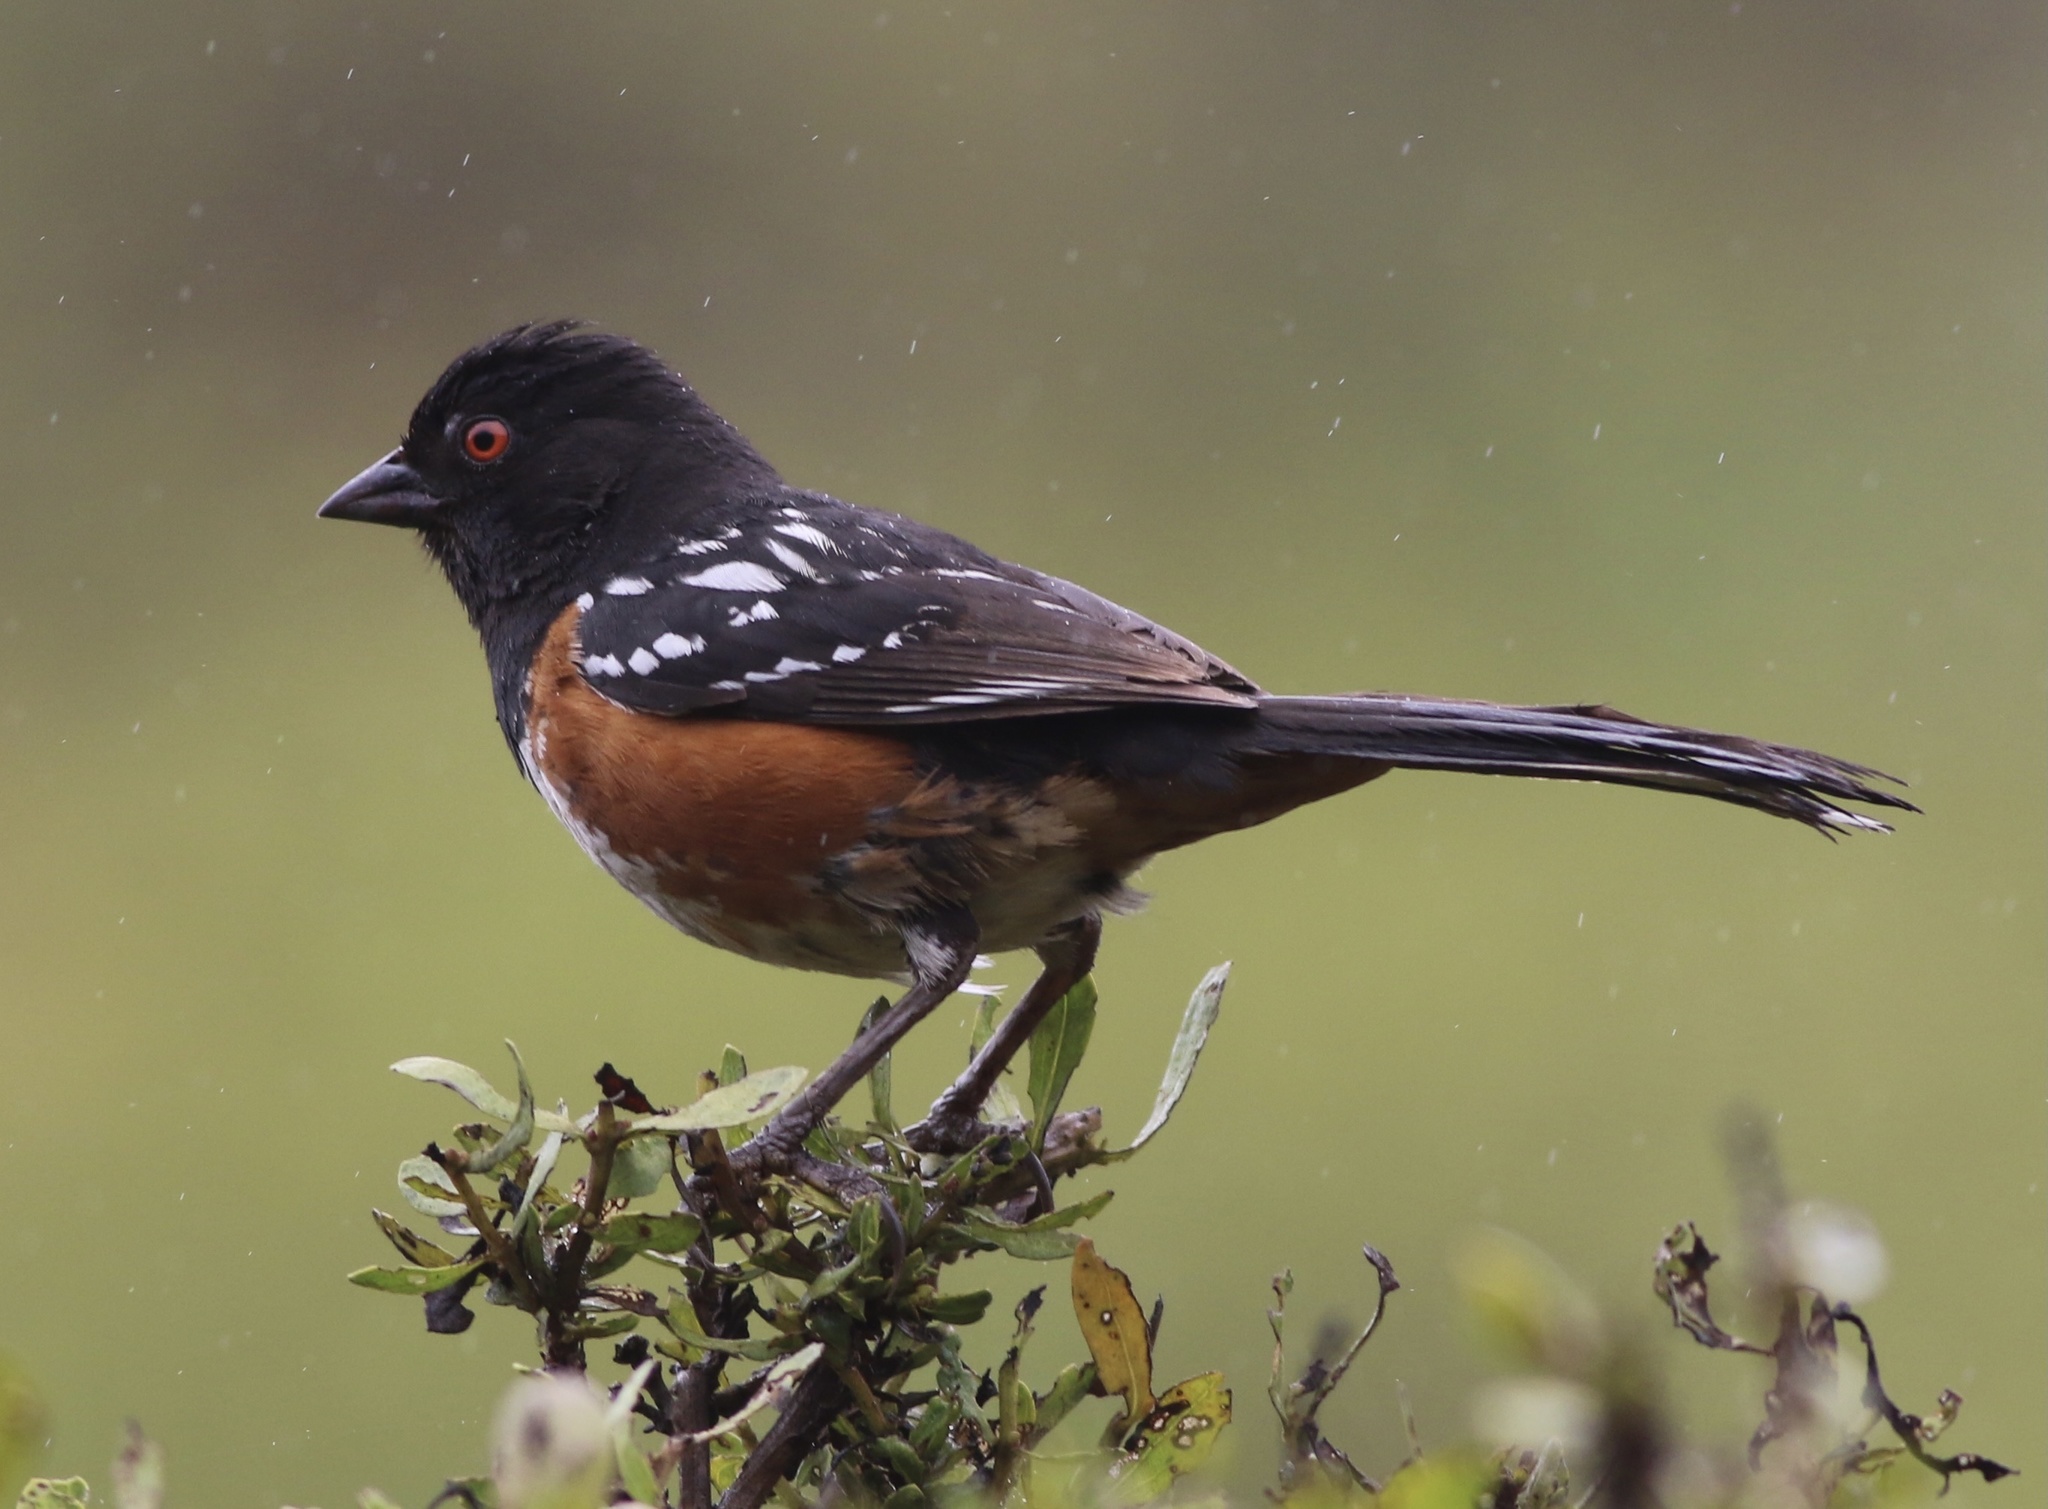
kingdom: Animalia
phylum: Chordata
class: Aves
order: Passeriformes
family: Passerellidae
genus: Pipilo
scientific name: Pipilo maculatus
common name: Spotted towhee
